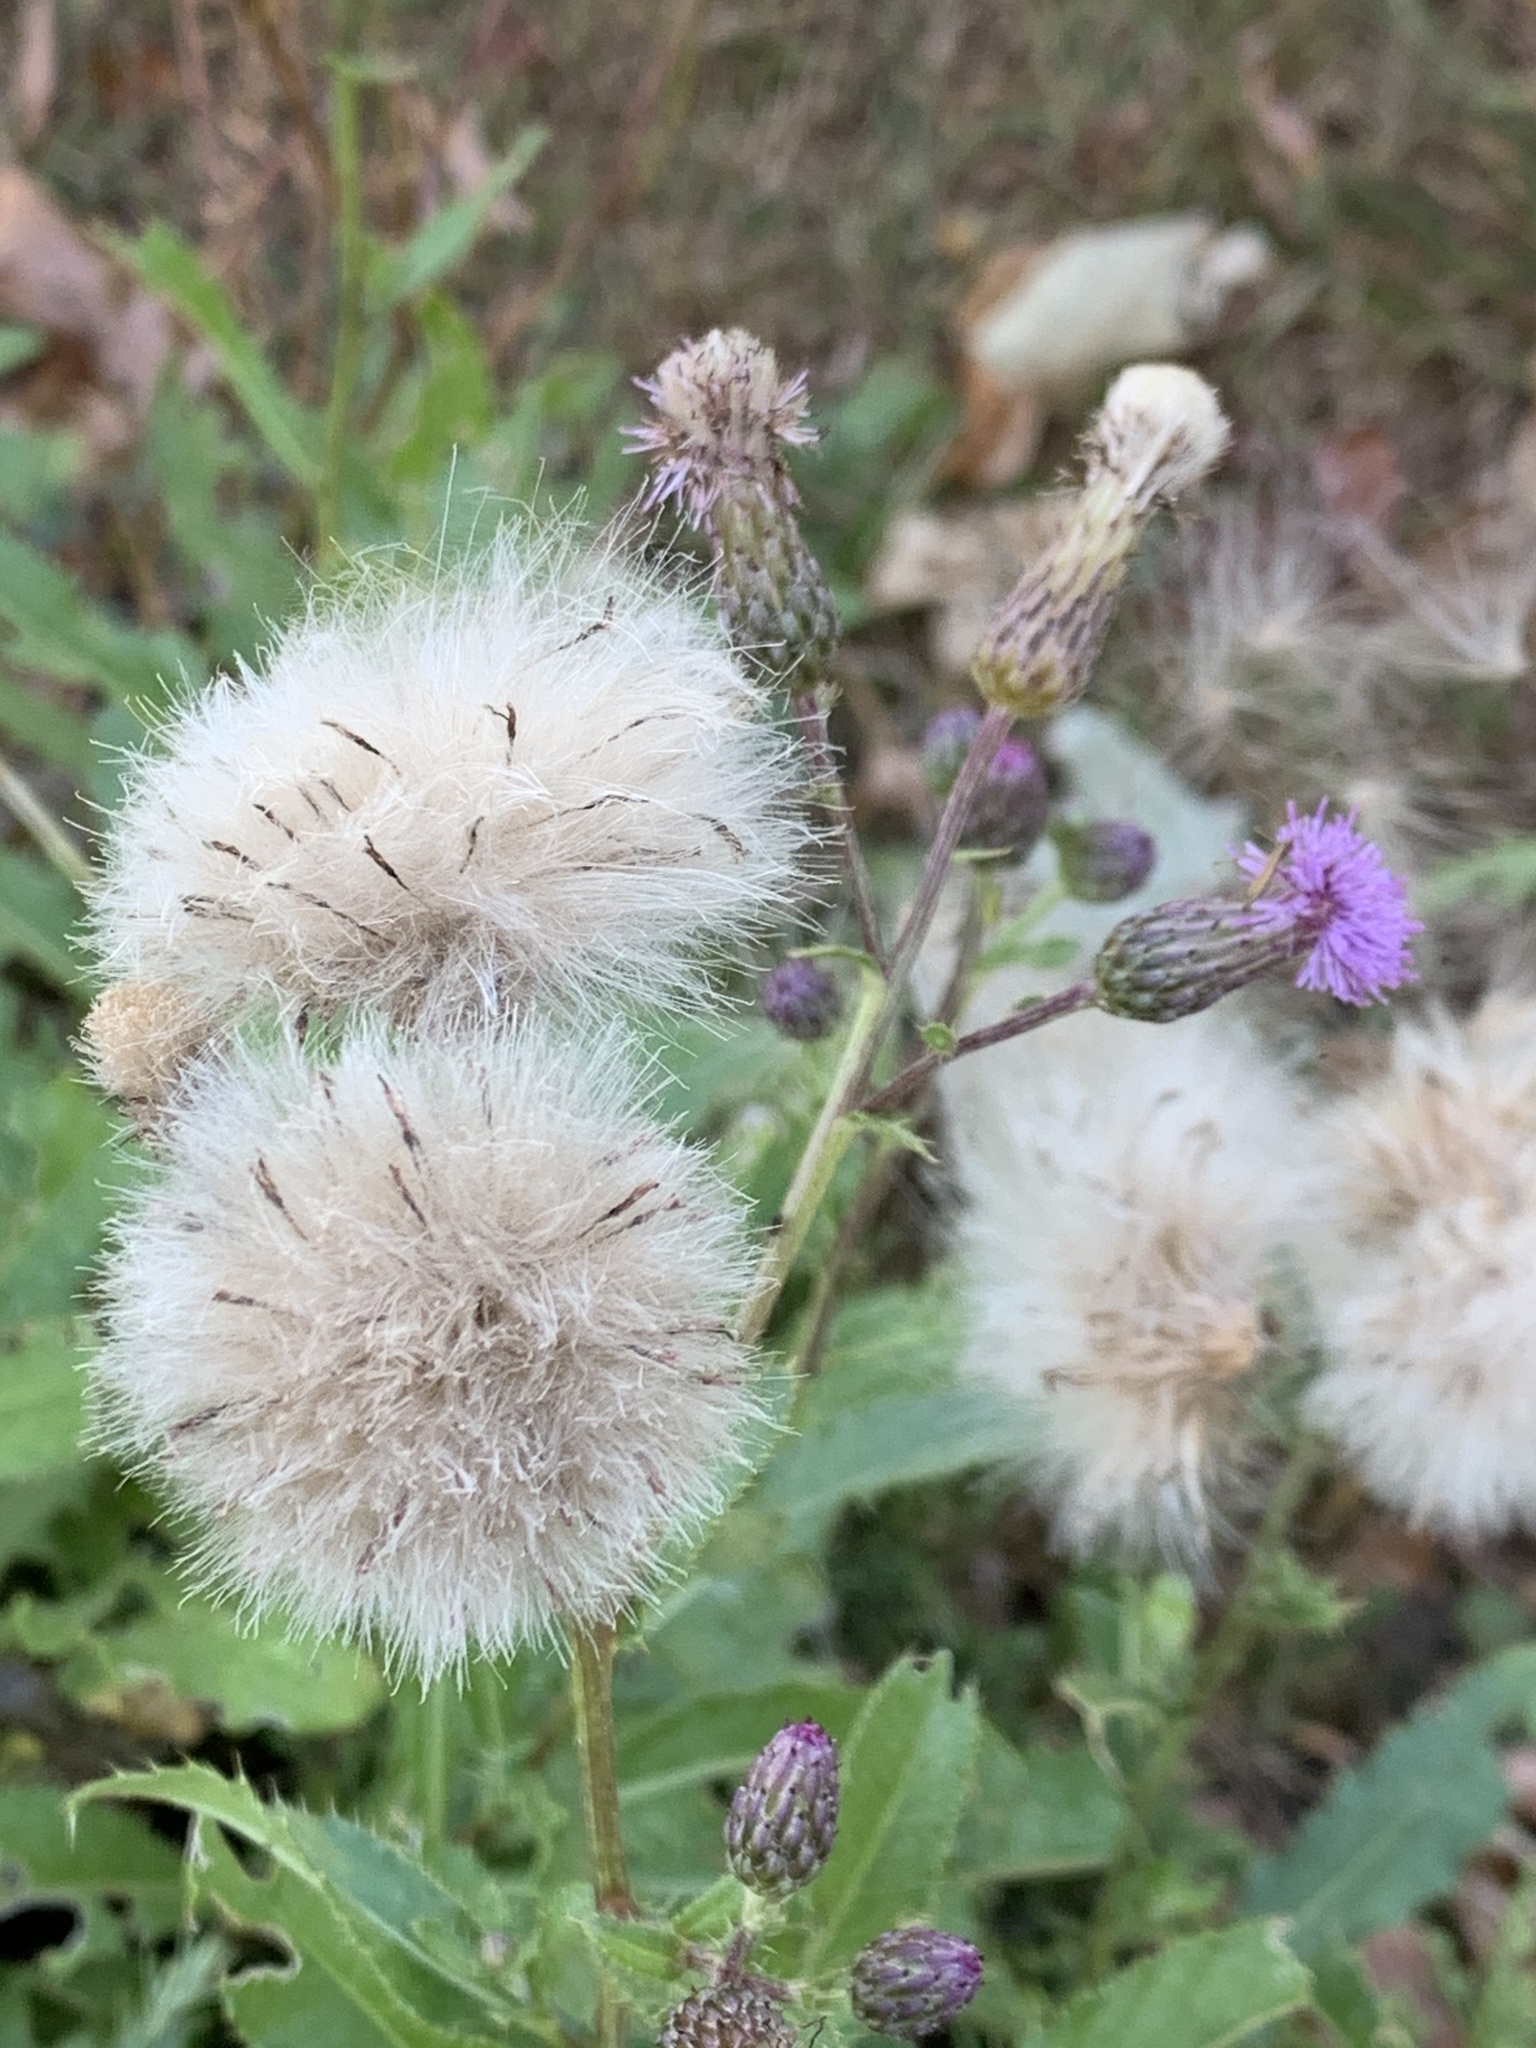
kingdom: Plantae
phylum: Tracheophyta
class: Magnoliopsida
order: Asterales
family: Asteraceae
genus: Cirsium
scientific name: Cirsium arvense
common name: Creeping thistle
